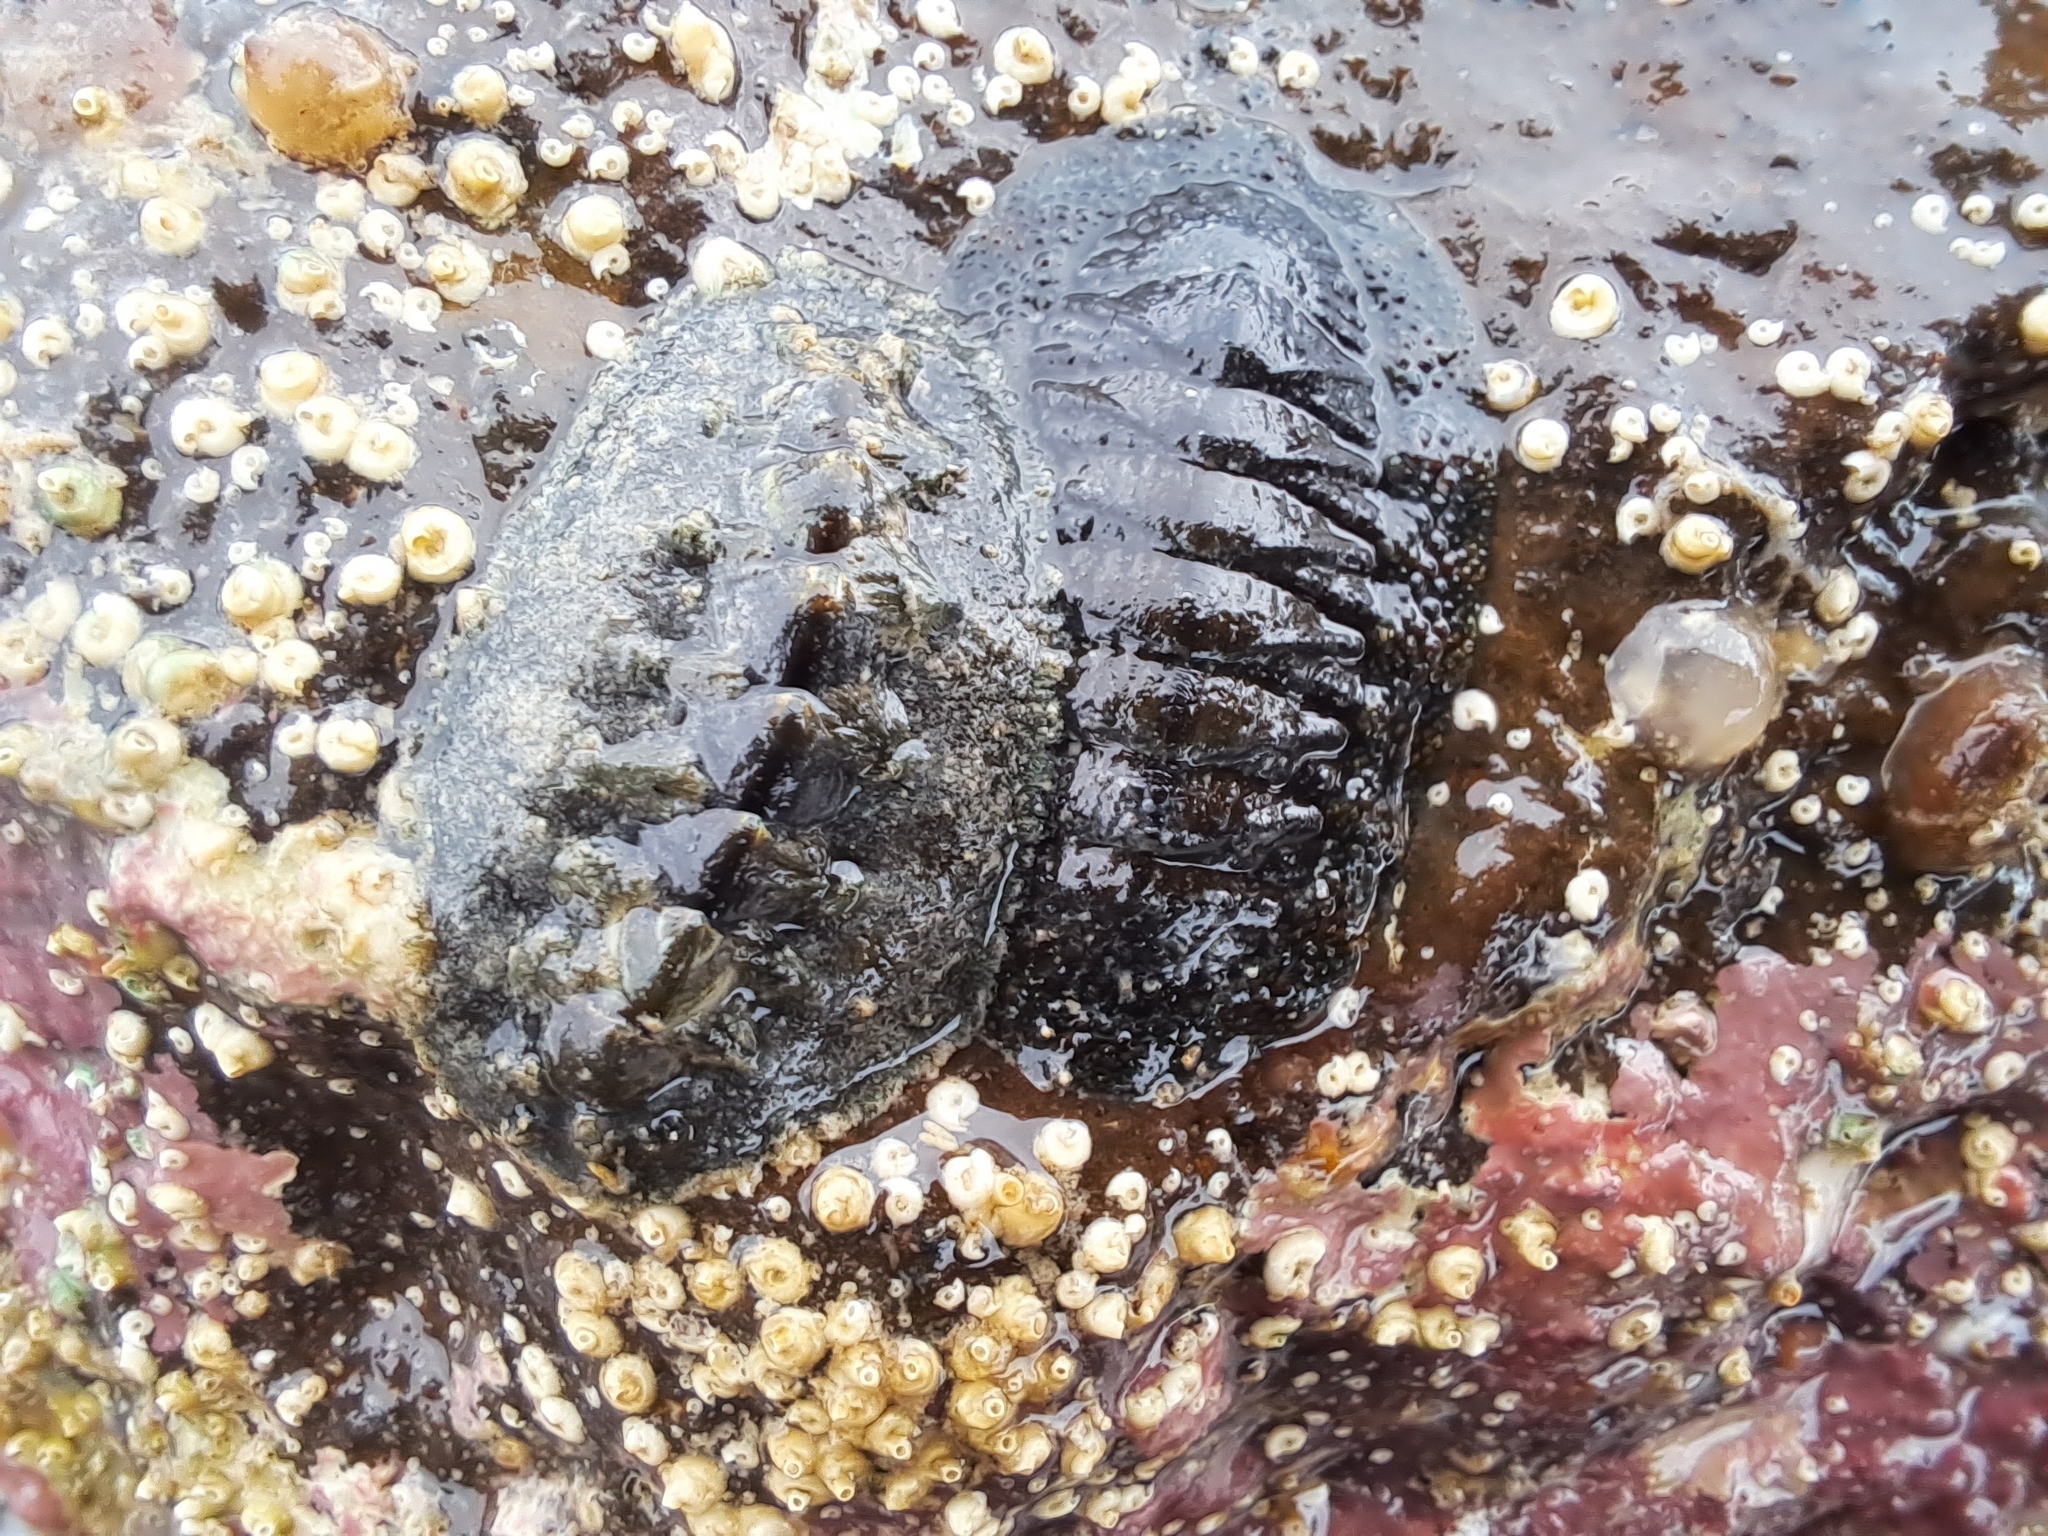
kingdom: Animalia
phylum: Mollusca
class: Polyplacophora
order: Chitonida
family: Chitonidae
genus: Radsia
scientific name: Radsia sulcatus
